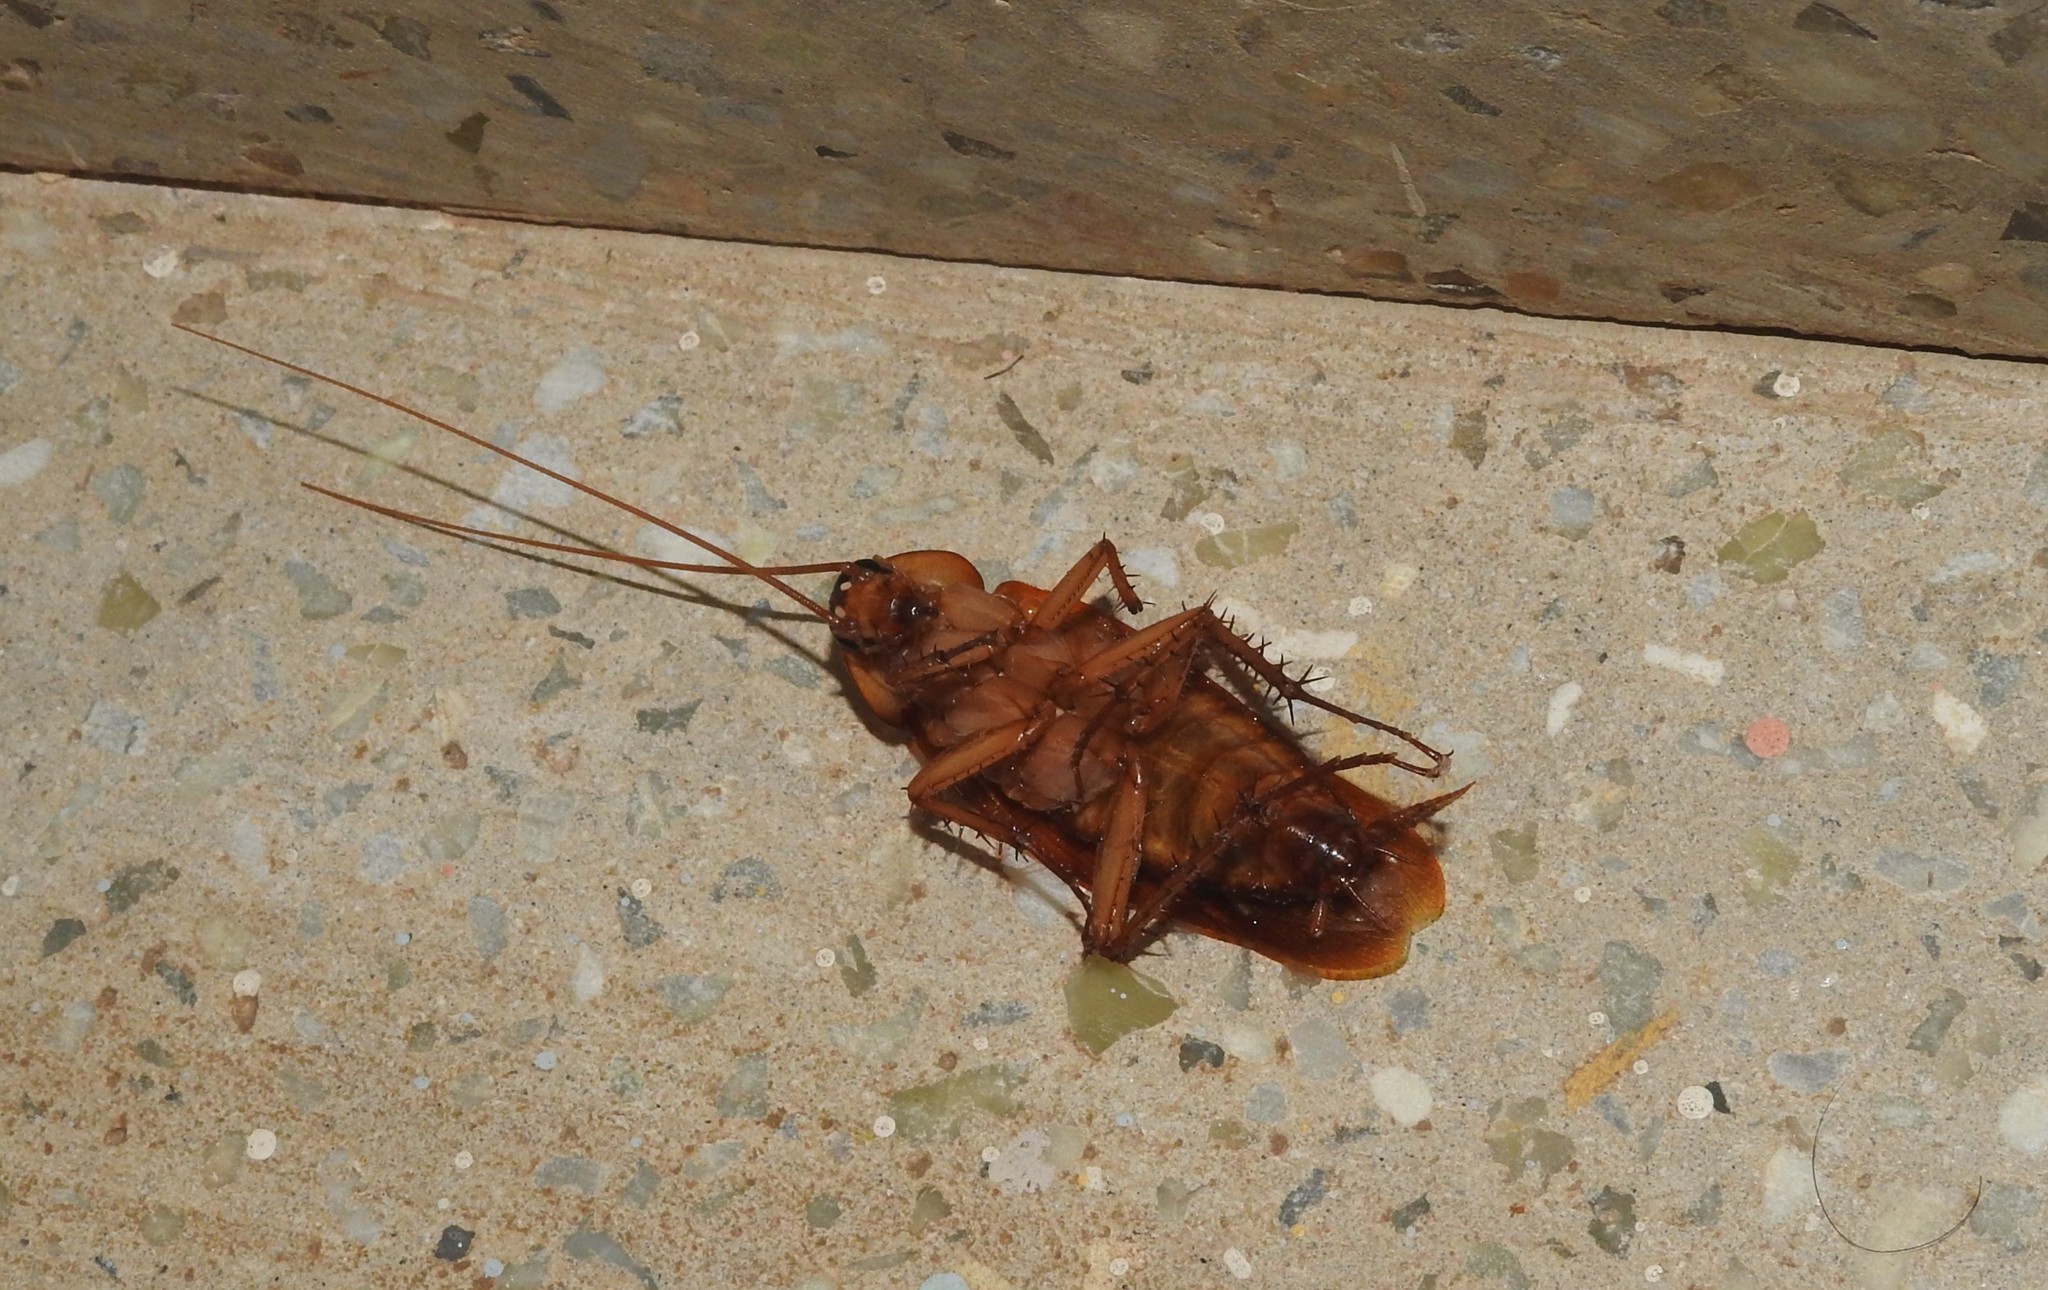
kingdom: Animalia
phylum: Arthropoda
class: Insecta
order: Blattodea
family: Blattidae
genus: Periplaneta
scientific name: Periplaneta americana
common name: American cockroach
